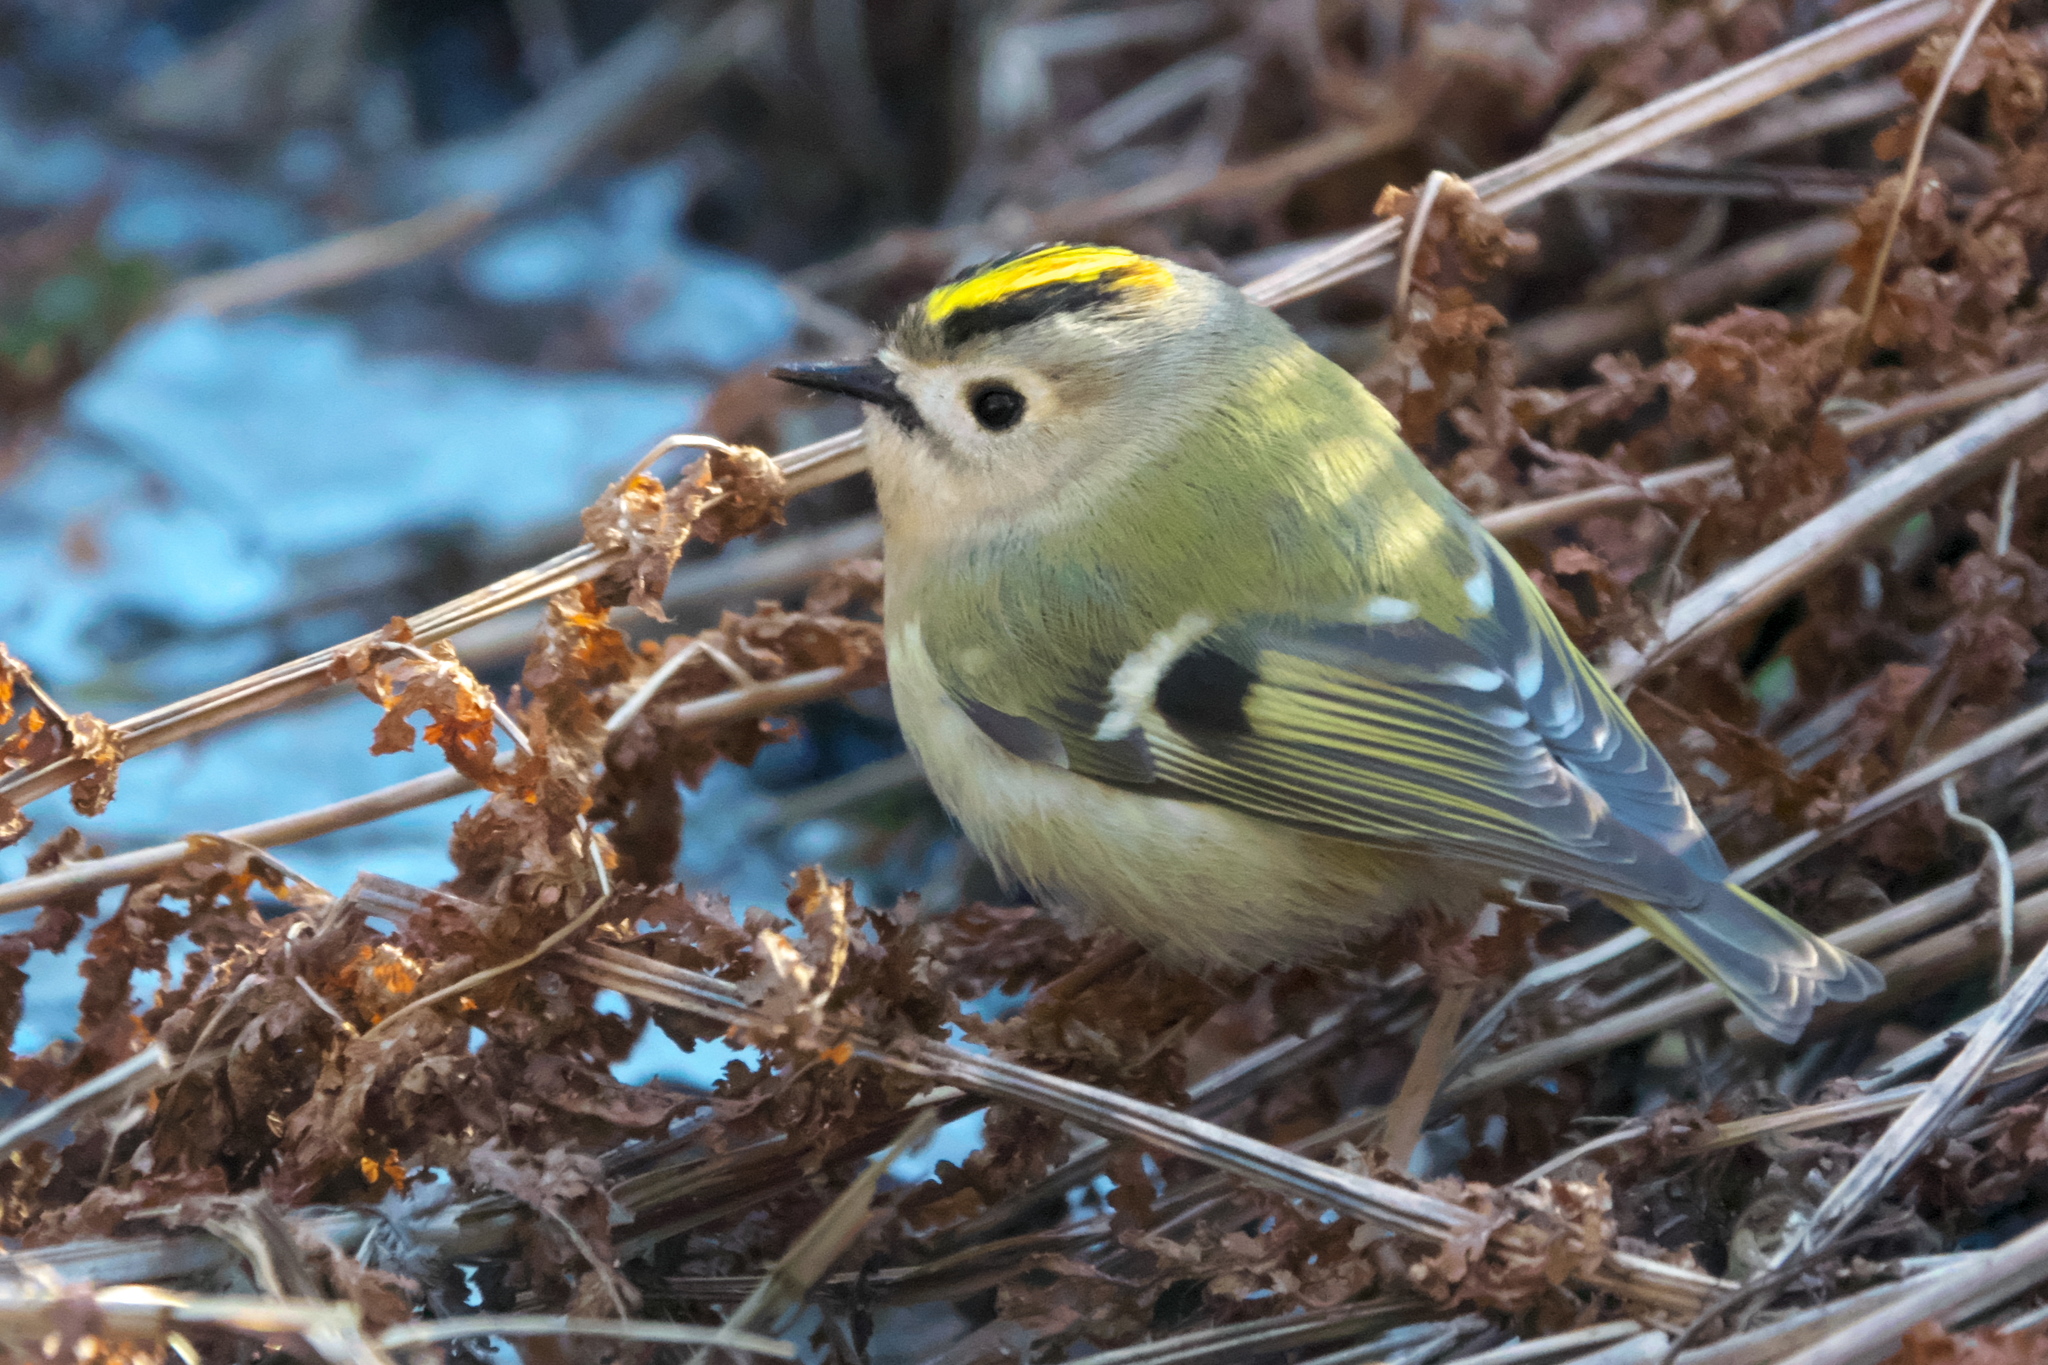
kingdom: Animalia
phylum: Chordata
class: Aves
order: Passeriformes
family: Regulidae
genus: Regulus
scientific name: Regulus regulus
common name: Goldcrest
